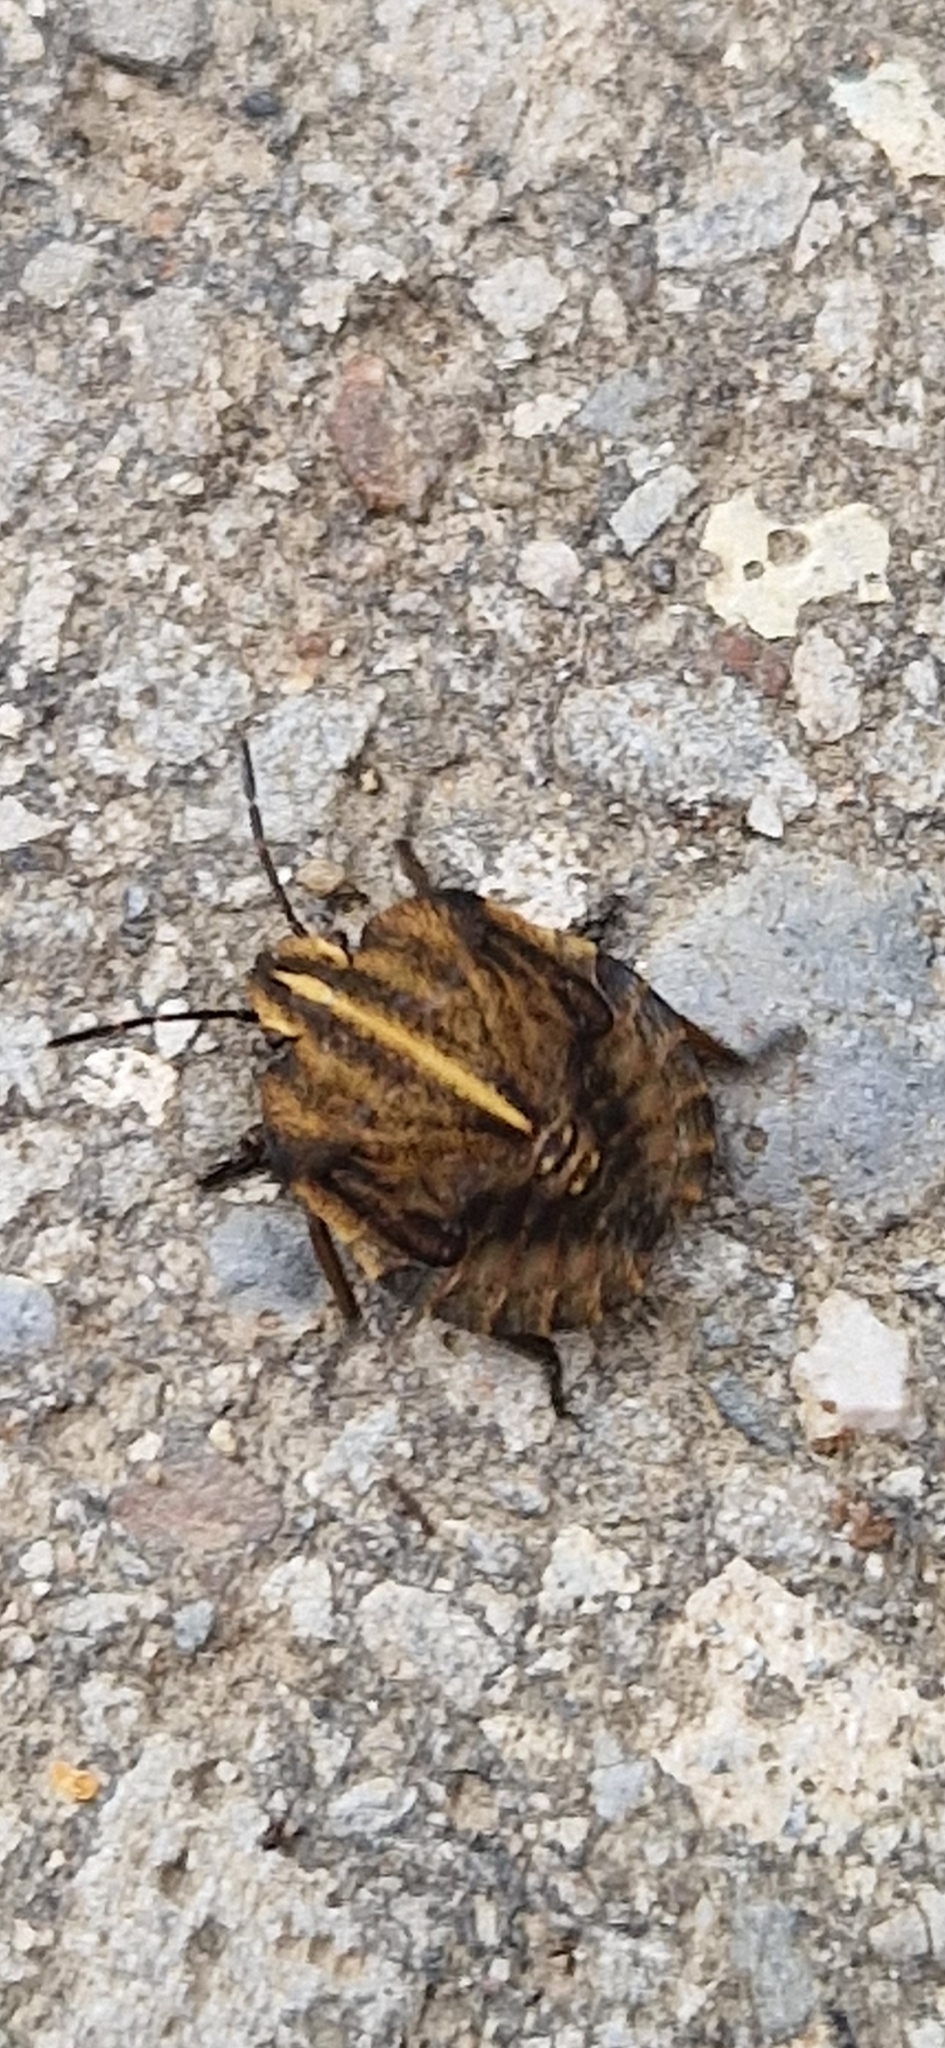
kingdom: Animalia
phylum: Arthropoda
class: Insecta
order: Hemiptera
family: Pentatomidae
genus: Graphosoma
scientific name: Graphosoma italicum
